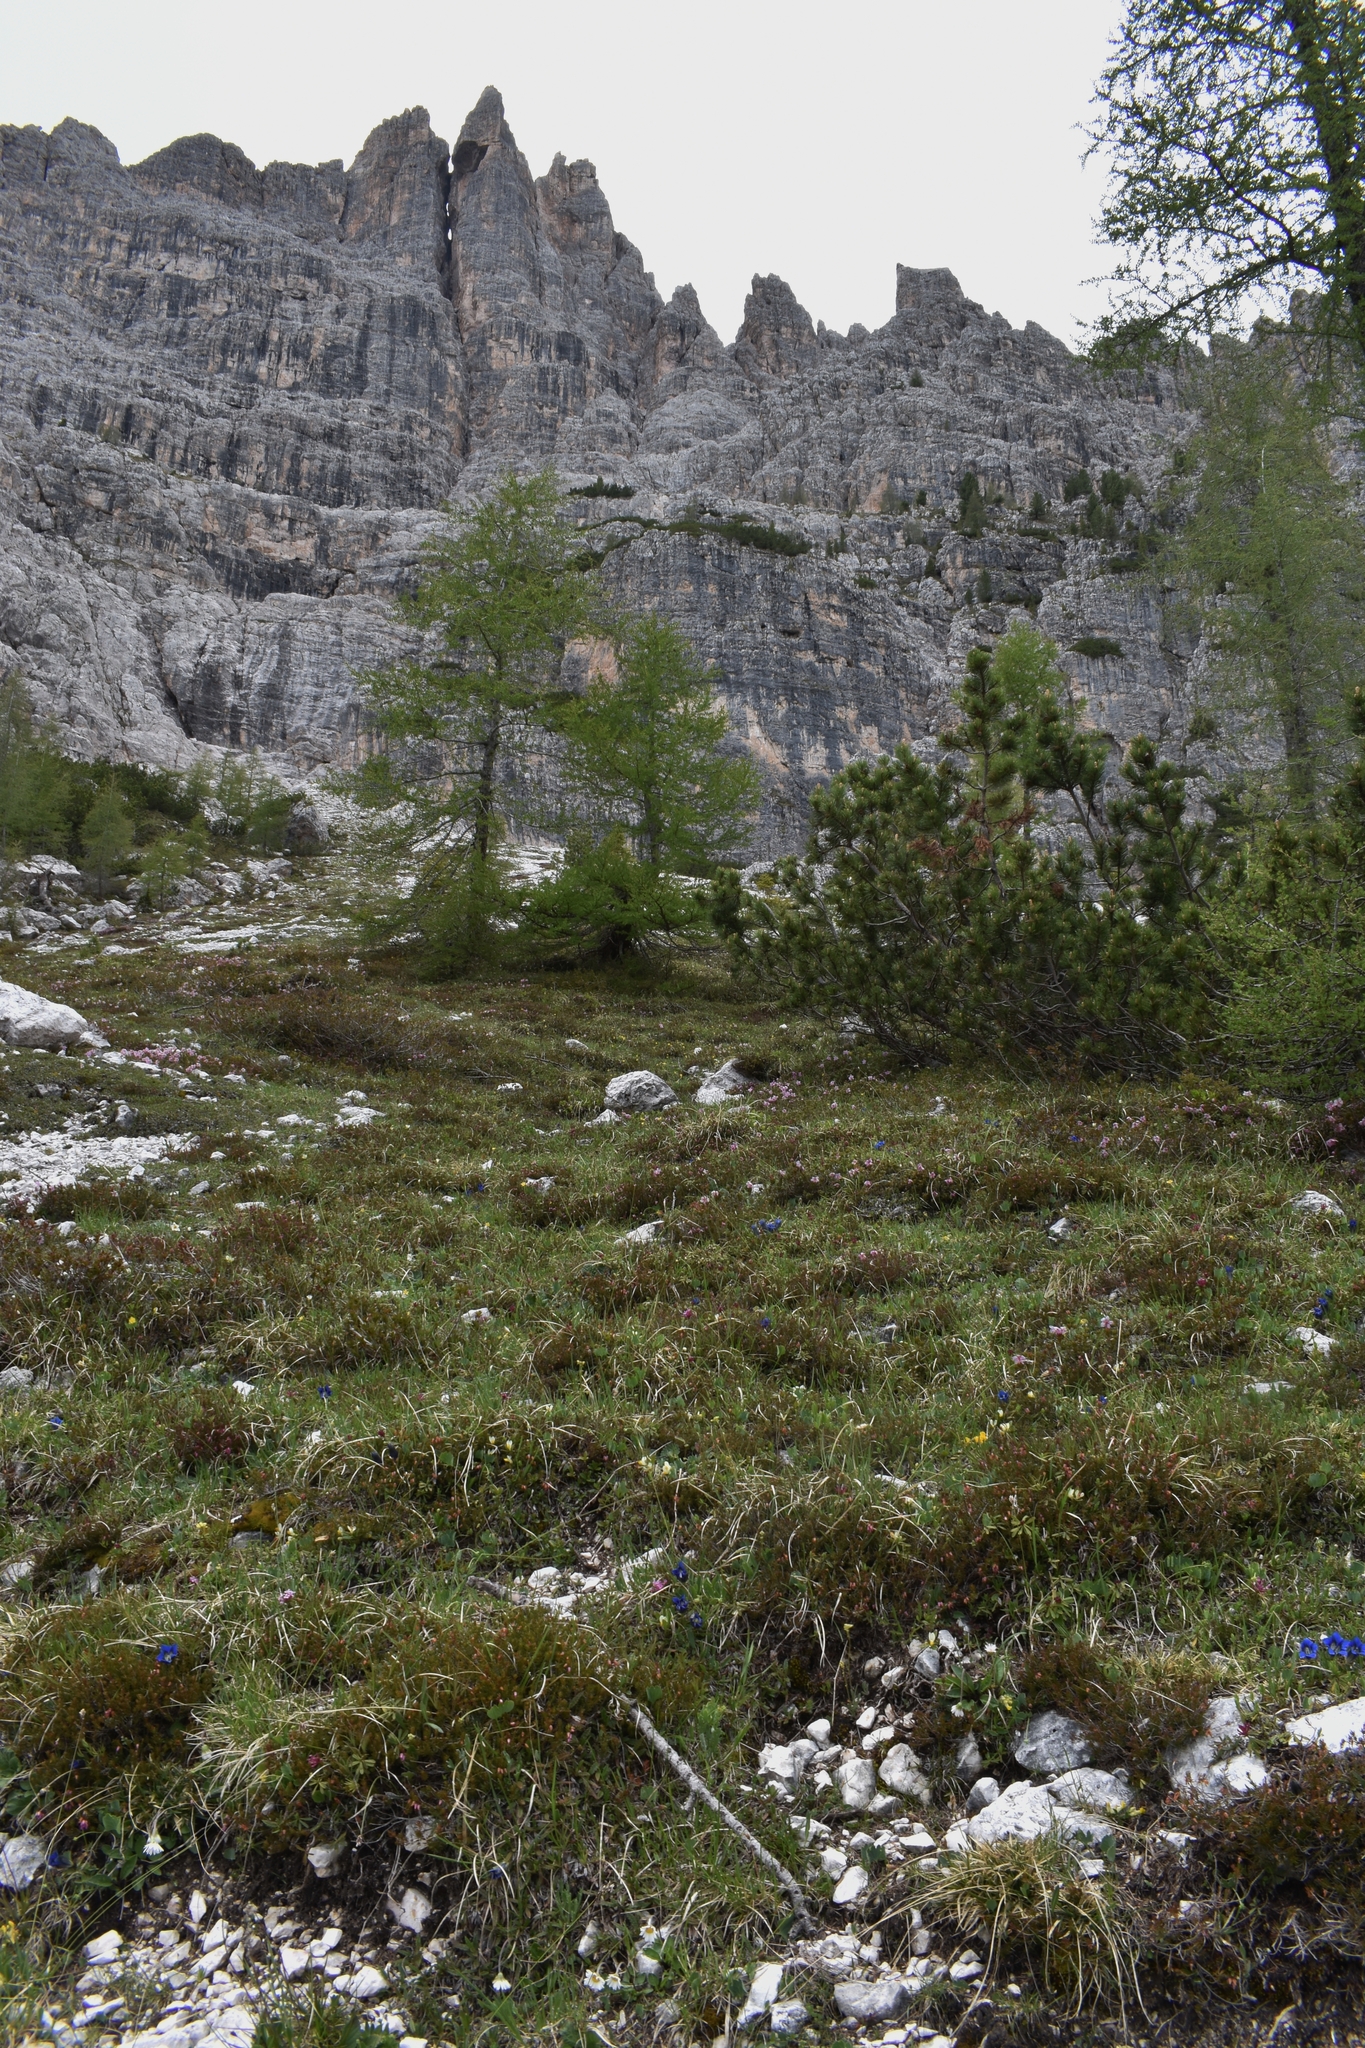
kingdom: Plantae
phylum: Tracheophyta
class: Magnoliopsida
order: Malvales
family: Thymelaeaceae
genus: Daphne
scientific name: Daphne striata
